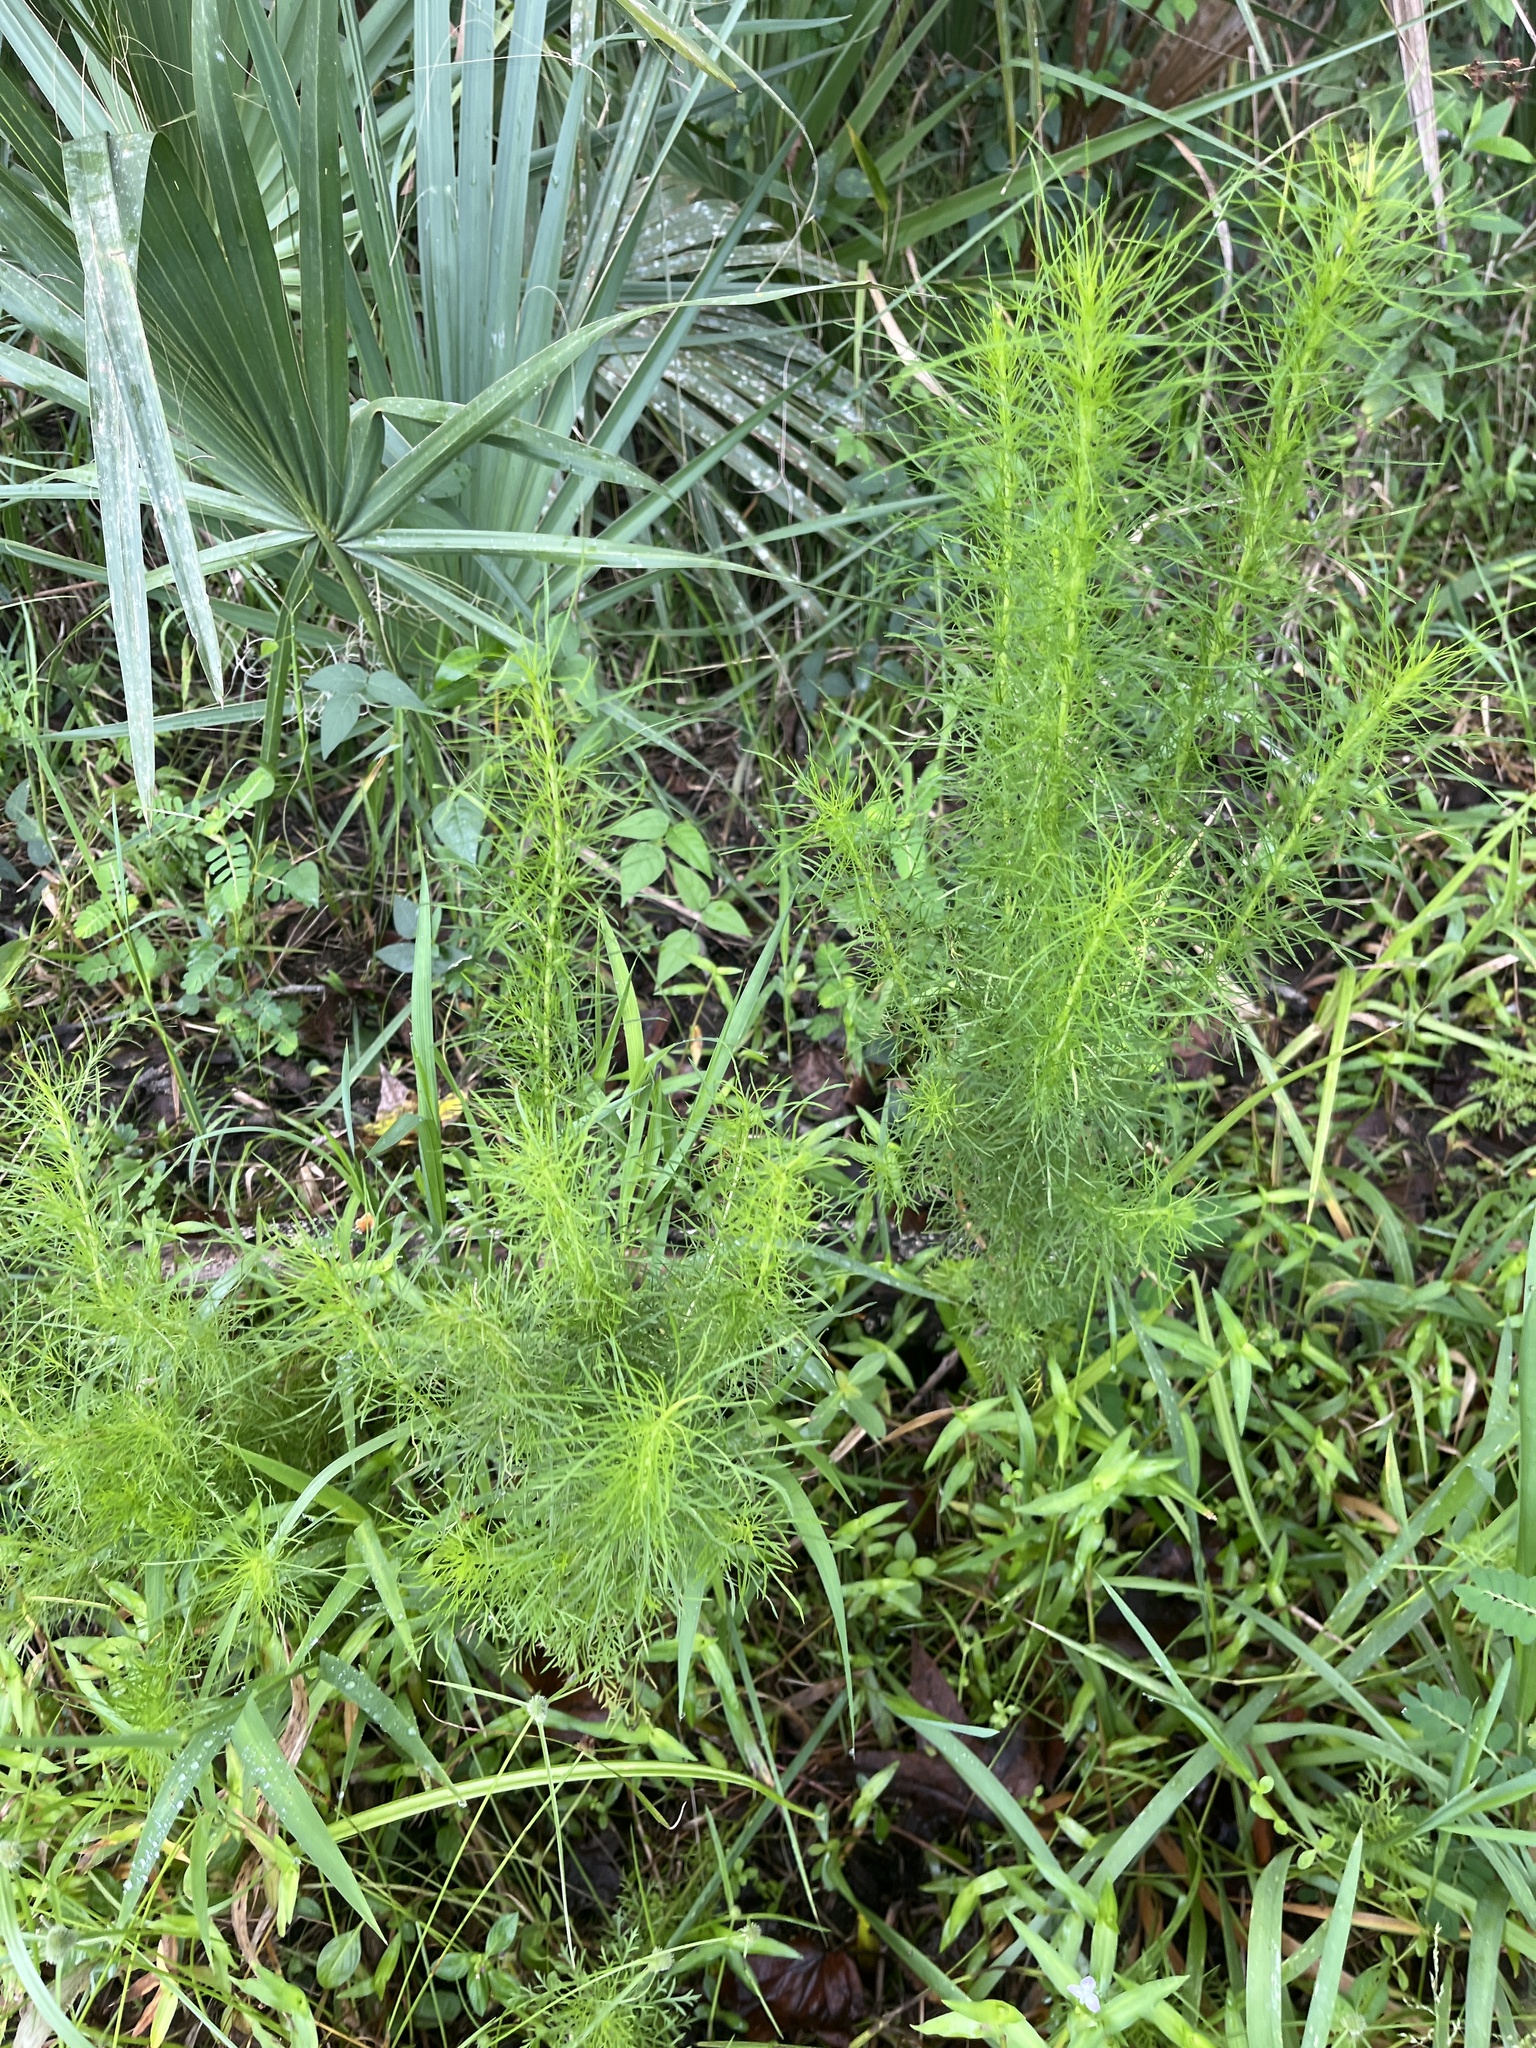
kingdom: Plantae
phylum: Tracheophyta
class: Magnoliopsida
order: Asterales
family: Asteraceae
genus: Eupatorium
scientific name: Eupatorium capillifolium
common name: Dog-fennel
